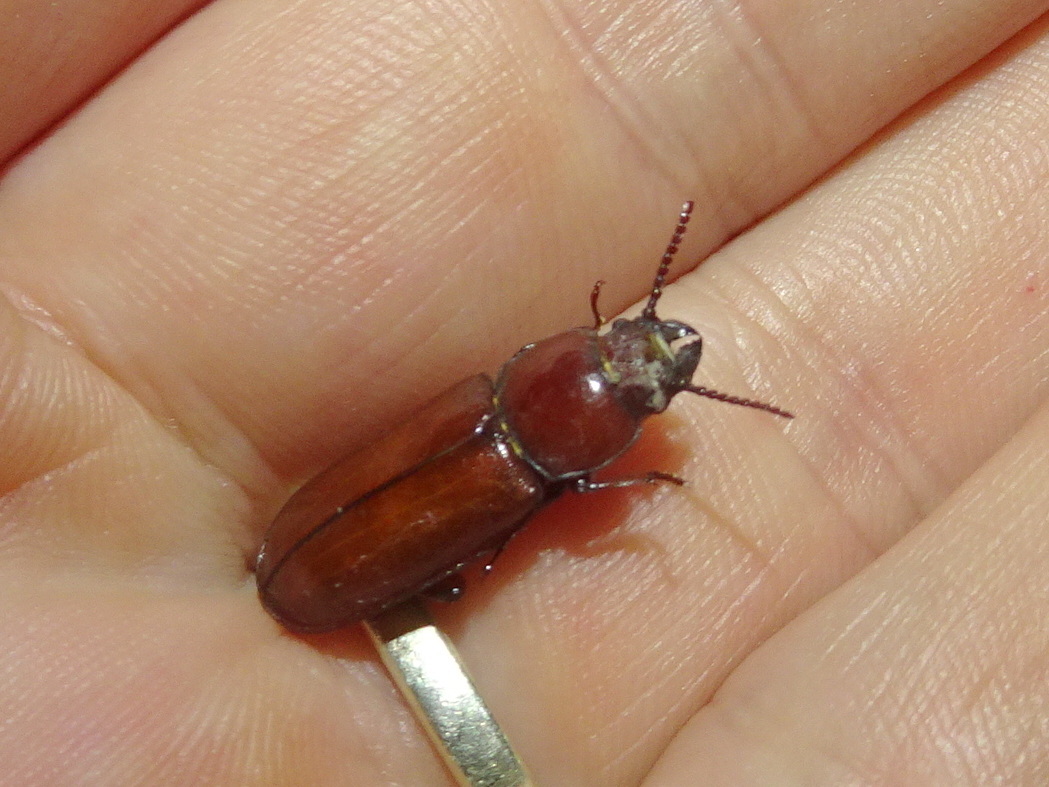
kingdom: Animalia
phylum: Arthropoda
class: Insecta
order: Coleoptera
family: Cerambycidae
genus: Neandra
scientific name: Neandra brunnea
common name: Pole borer
